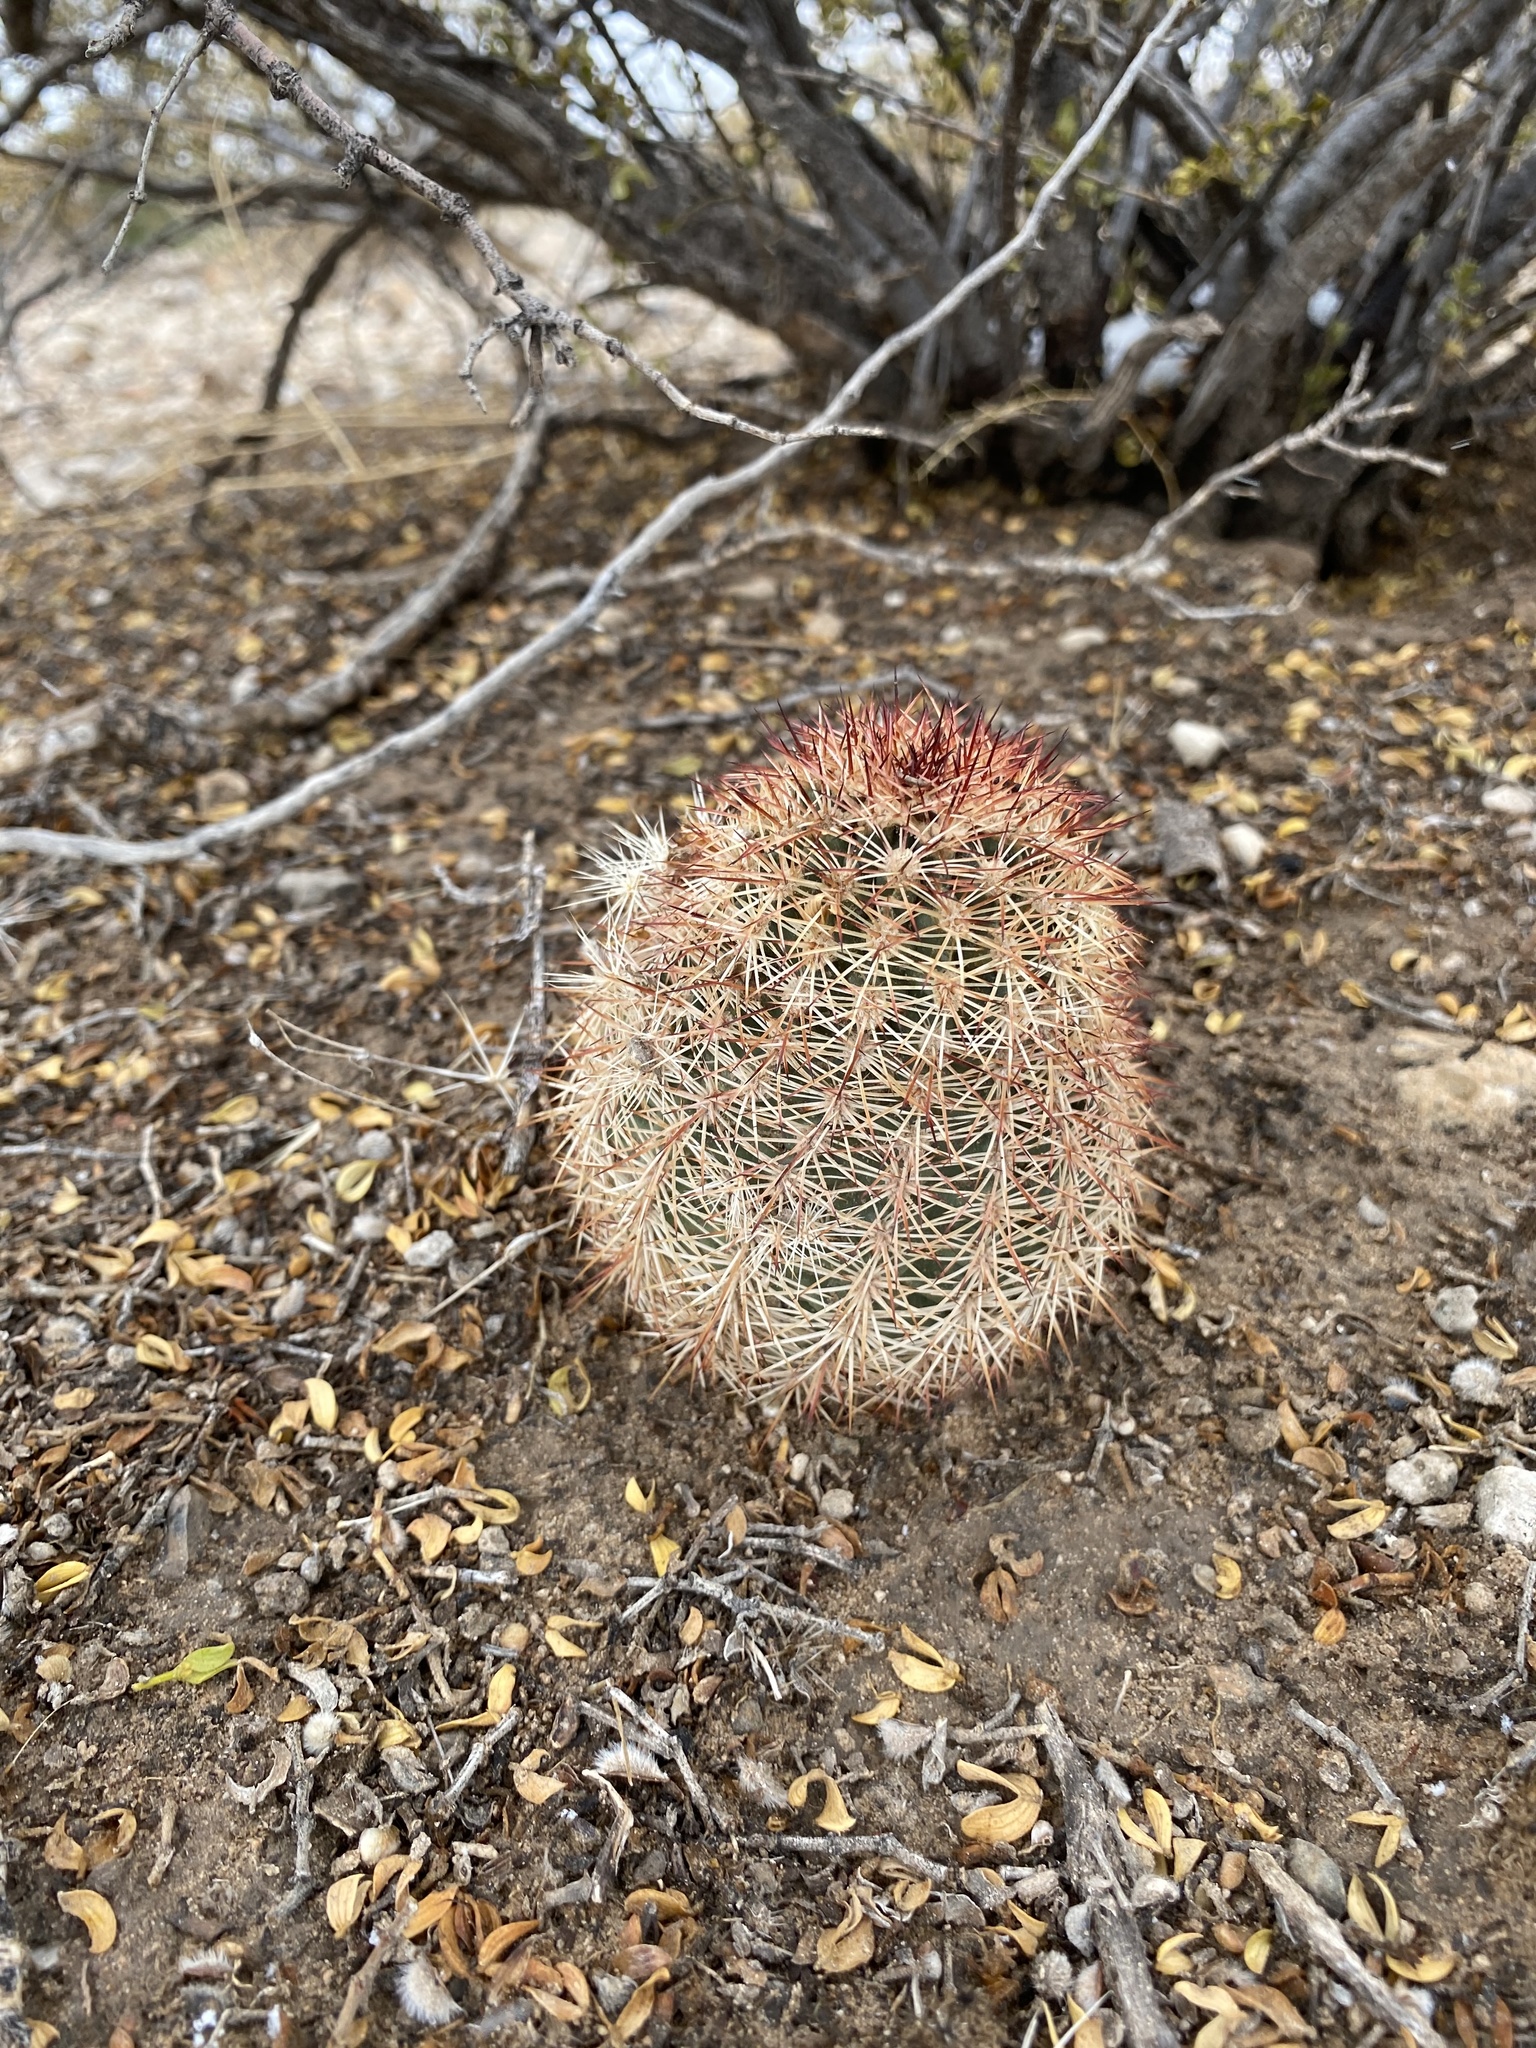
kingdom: Plantae
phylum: Tracheophyta
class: Magnoliopsida
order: Caryophyllales
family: Cactaceae
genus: Echinocereus
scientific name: Echinocereus dasyacanthus
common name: Spiny hedgehog cactus
